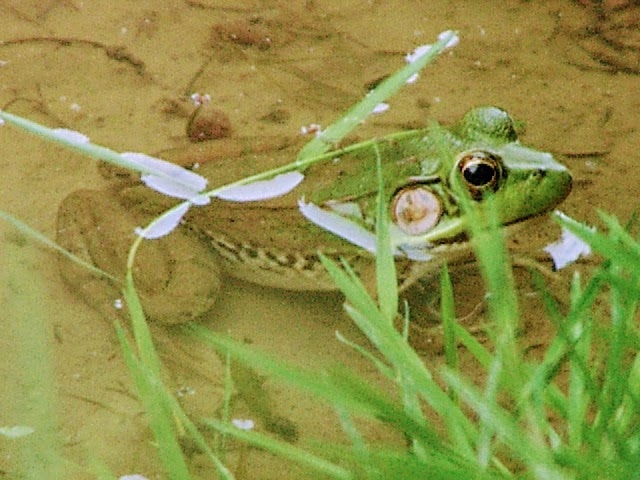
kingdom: Animalia
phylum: Chordata
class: Amphibia
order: Anura
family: Ranidae
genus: Lithobates
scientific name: Lithobates clamitans
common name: Green frog
